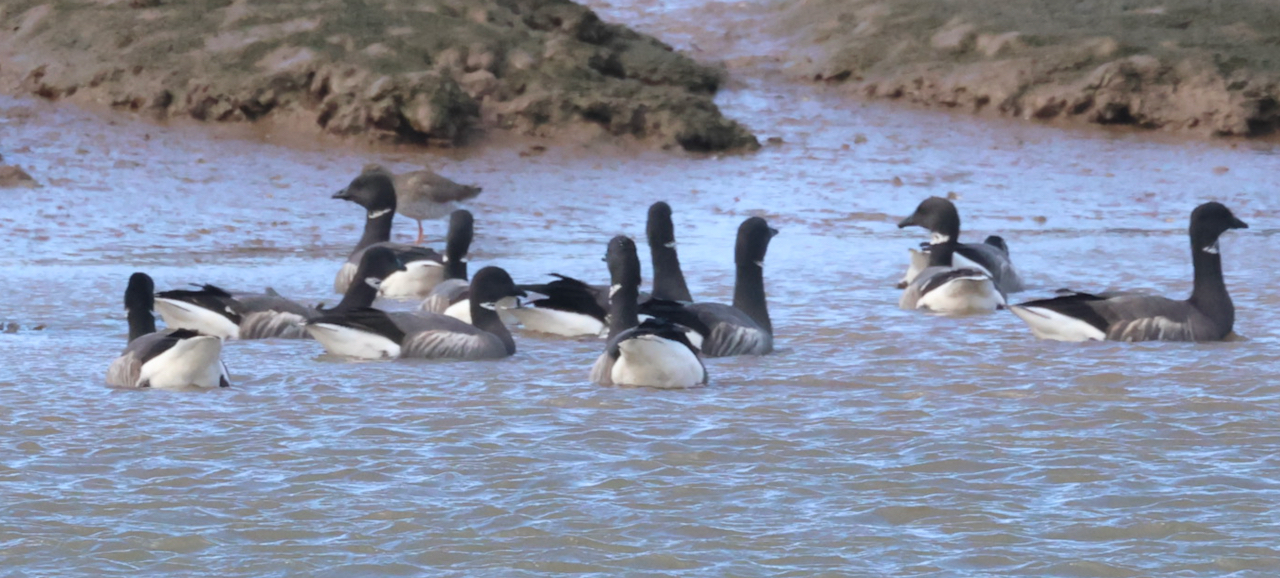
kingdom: Animalia
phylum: Chordata
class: Aves
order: Anseriformes
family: Anatidae
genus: Branta
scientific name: Branta bernicla
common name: Brant goose
